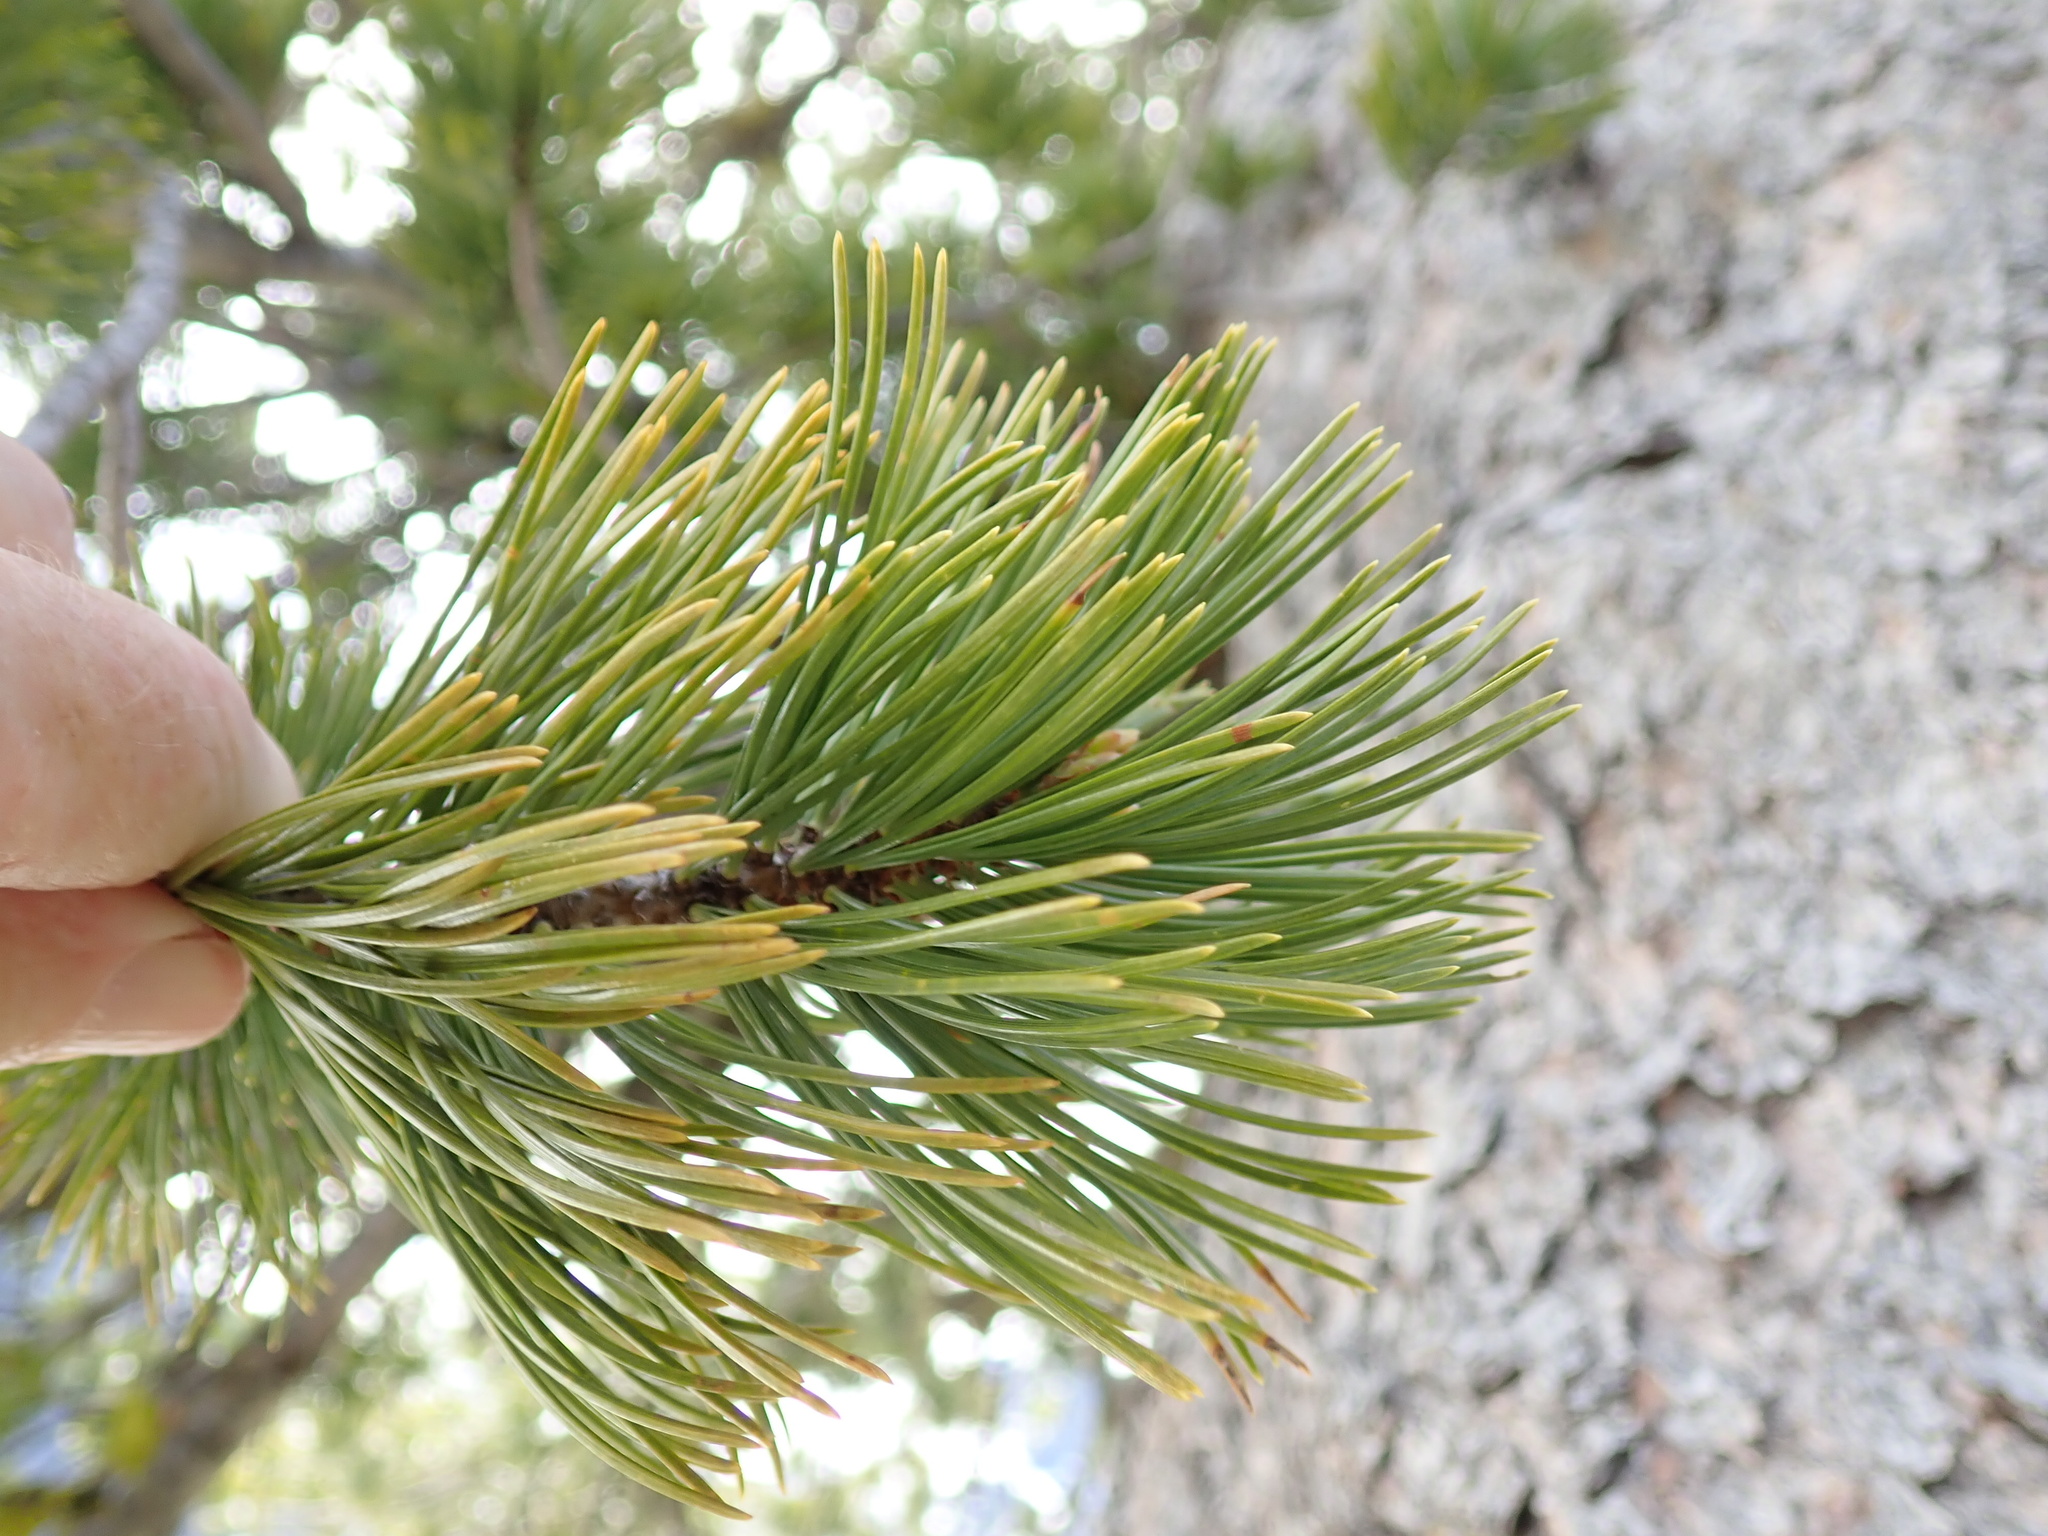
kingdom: Plantae
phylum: Tracheophyta
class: Pinopsida
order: Pinales
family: Pinaceae
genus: Pinus
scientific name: Pinus albicaulis
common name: Whitebark pine
